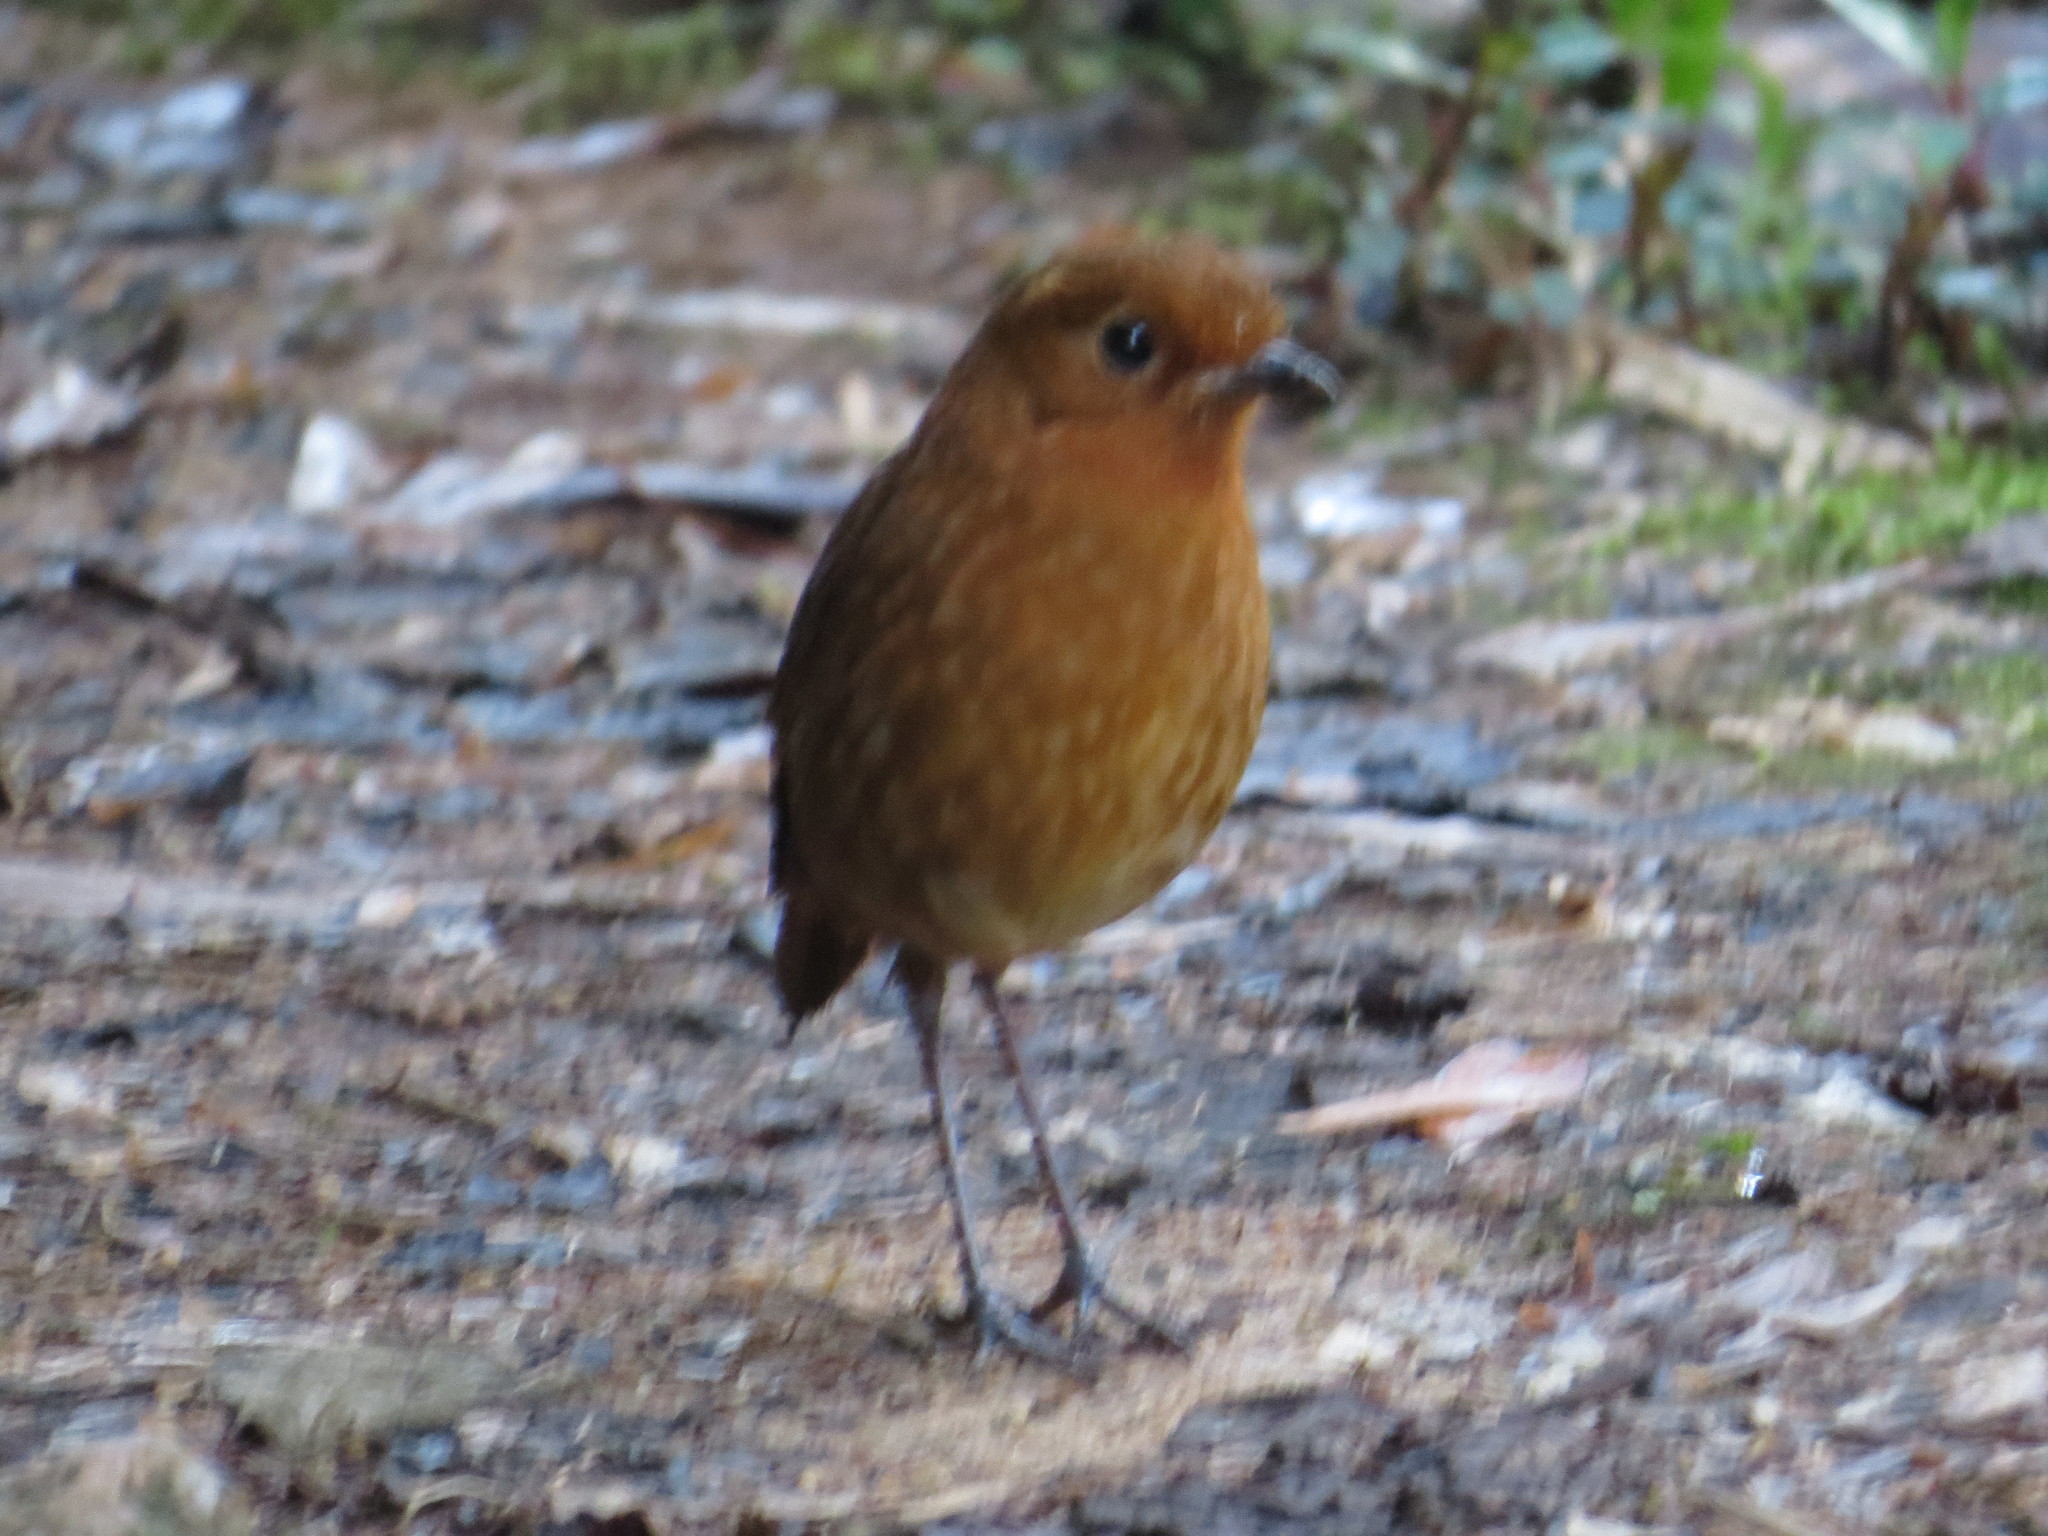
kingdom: Animalia
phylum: Chordata
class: Aves
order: Passeriformes
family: Grallariidae
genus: Grallaria
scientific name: Grallaria saturata
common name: Equatorial antpitta
